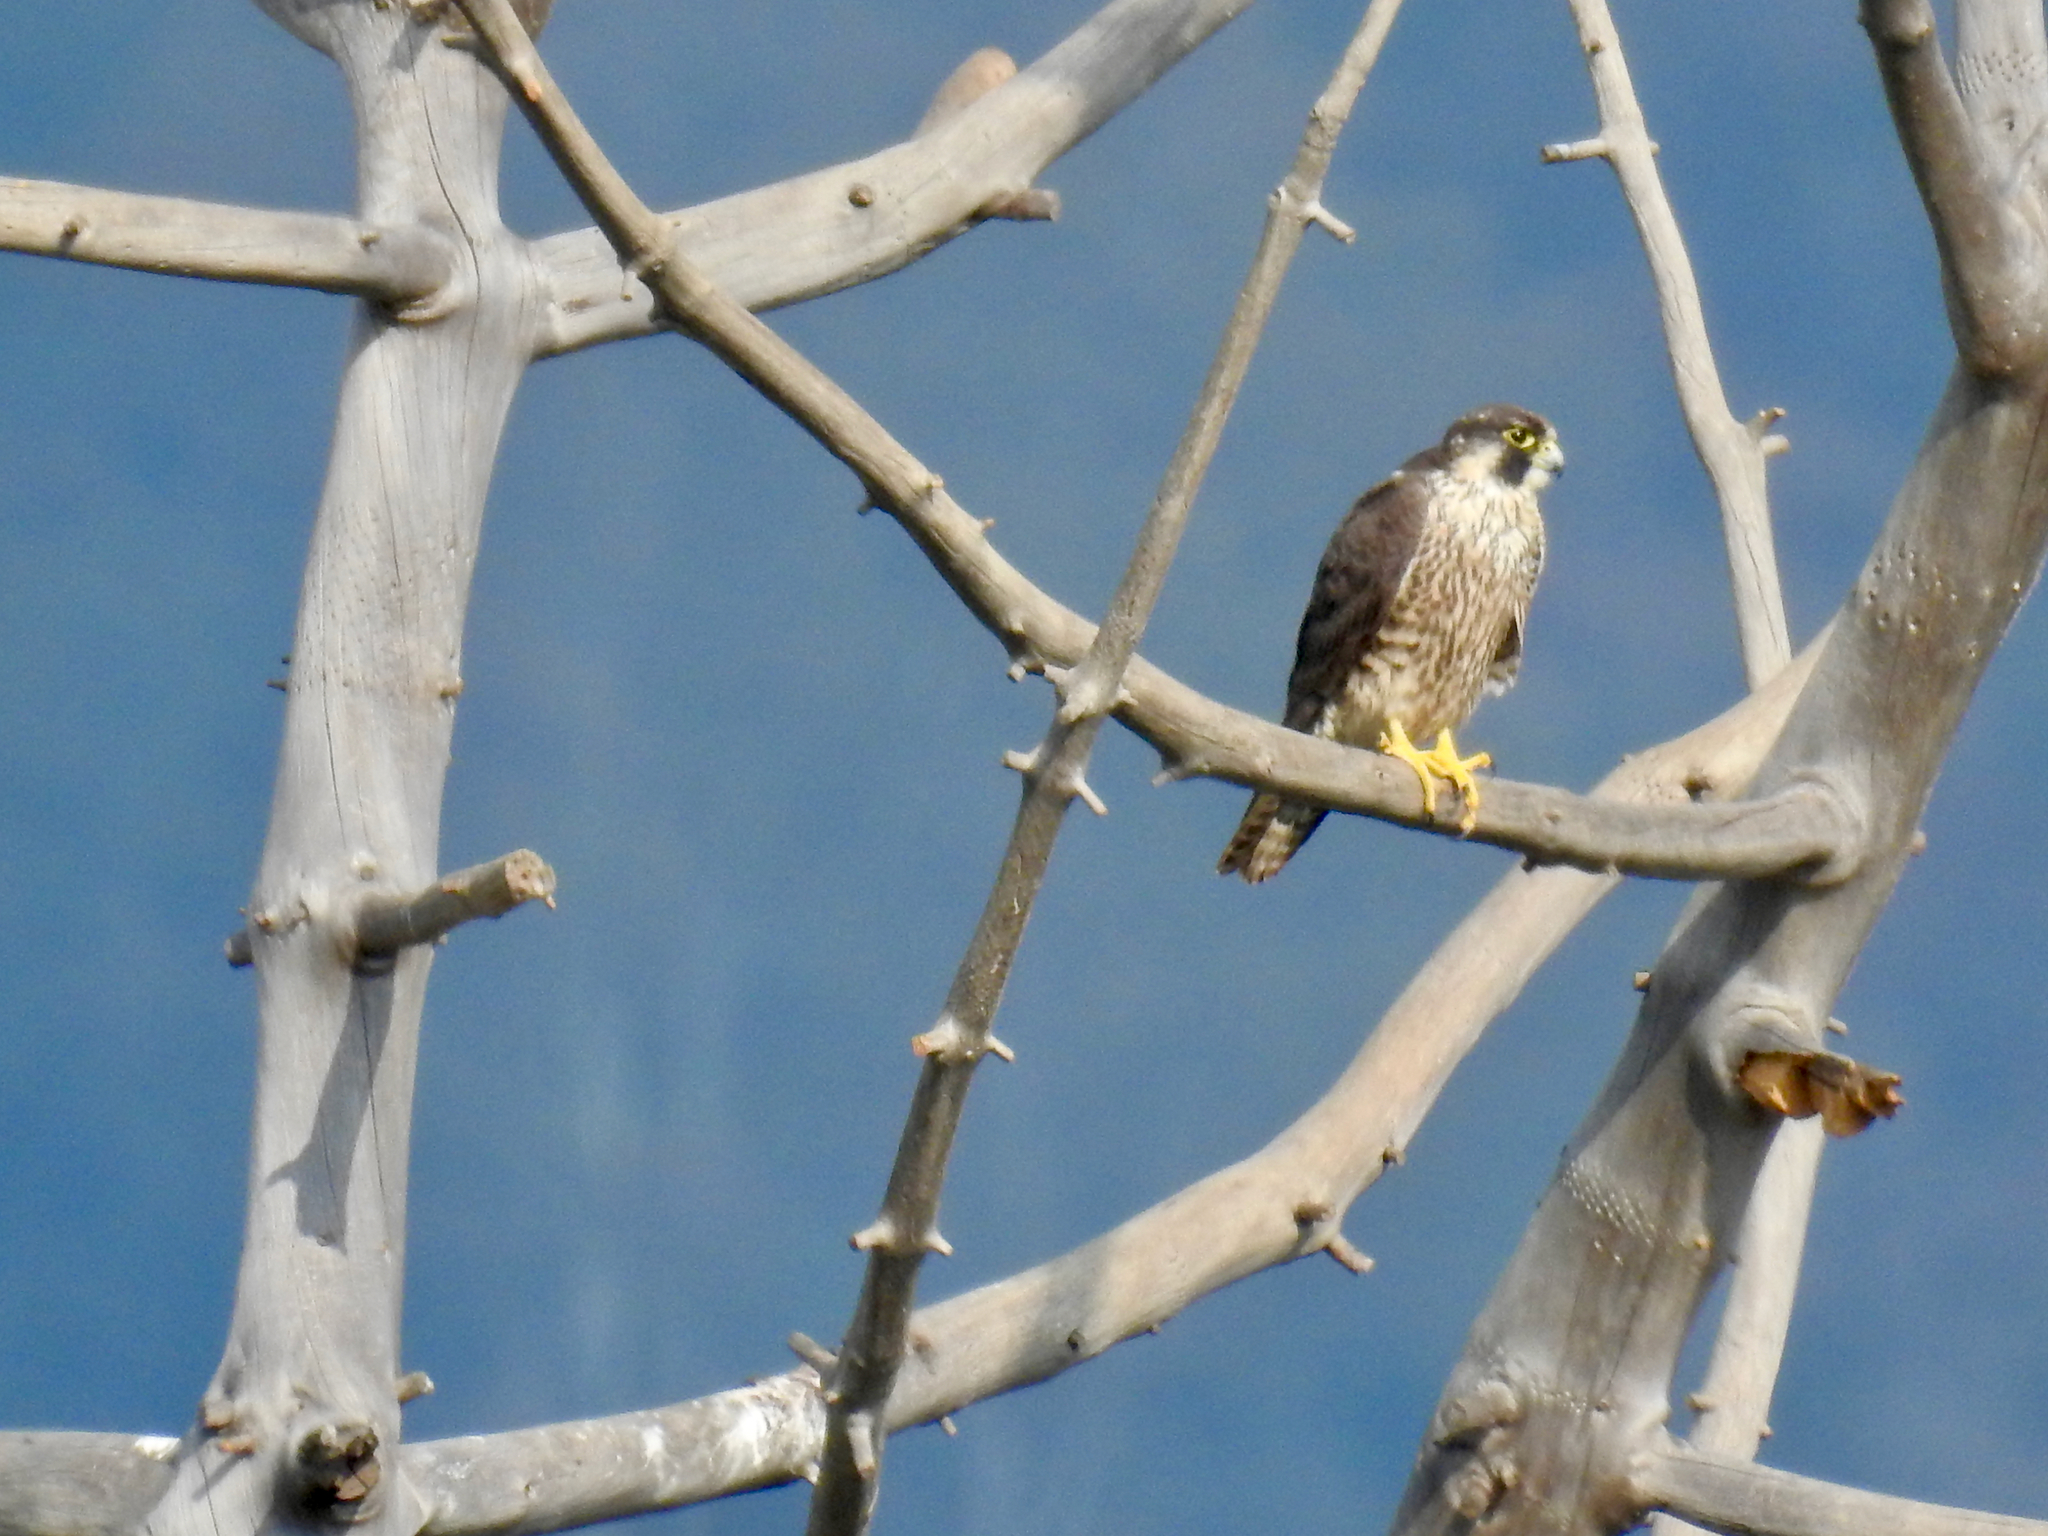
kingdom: Animalia
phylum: Chordata
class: Aves
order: Falconiformes
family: Falconidae
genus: Falco
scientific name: Falco peregrinus
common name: Peregrine falcon
